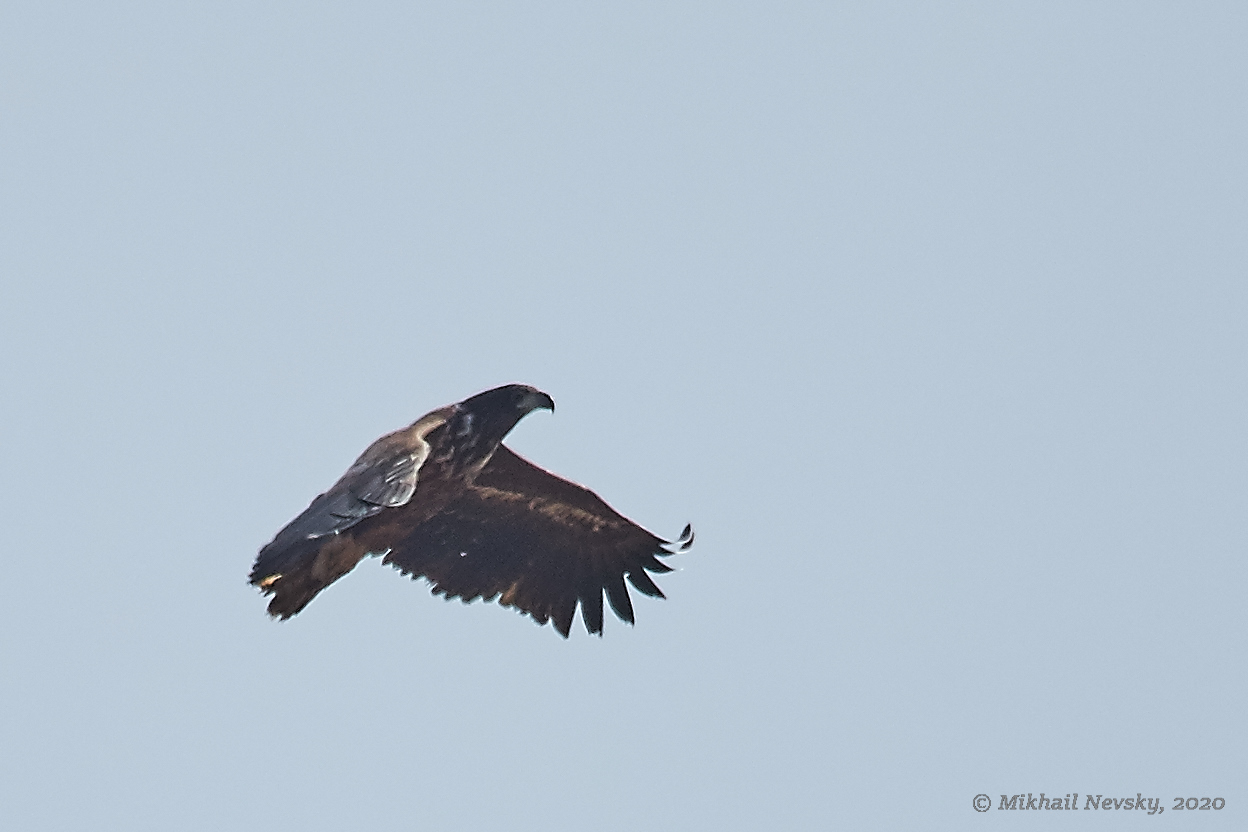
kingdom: Animalia
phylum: Chordata
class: Aves
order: Accipitriformes
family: Accipitridae
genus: Haliaeetus
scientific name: Haliaeetus albicilla
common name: White-tailed eagle
